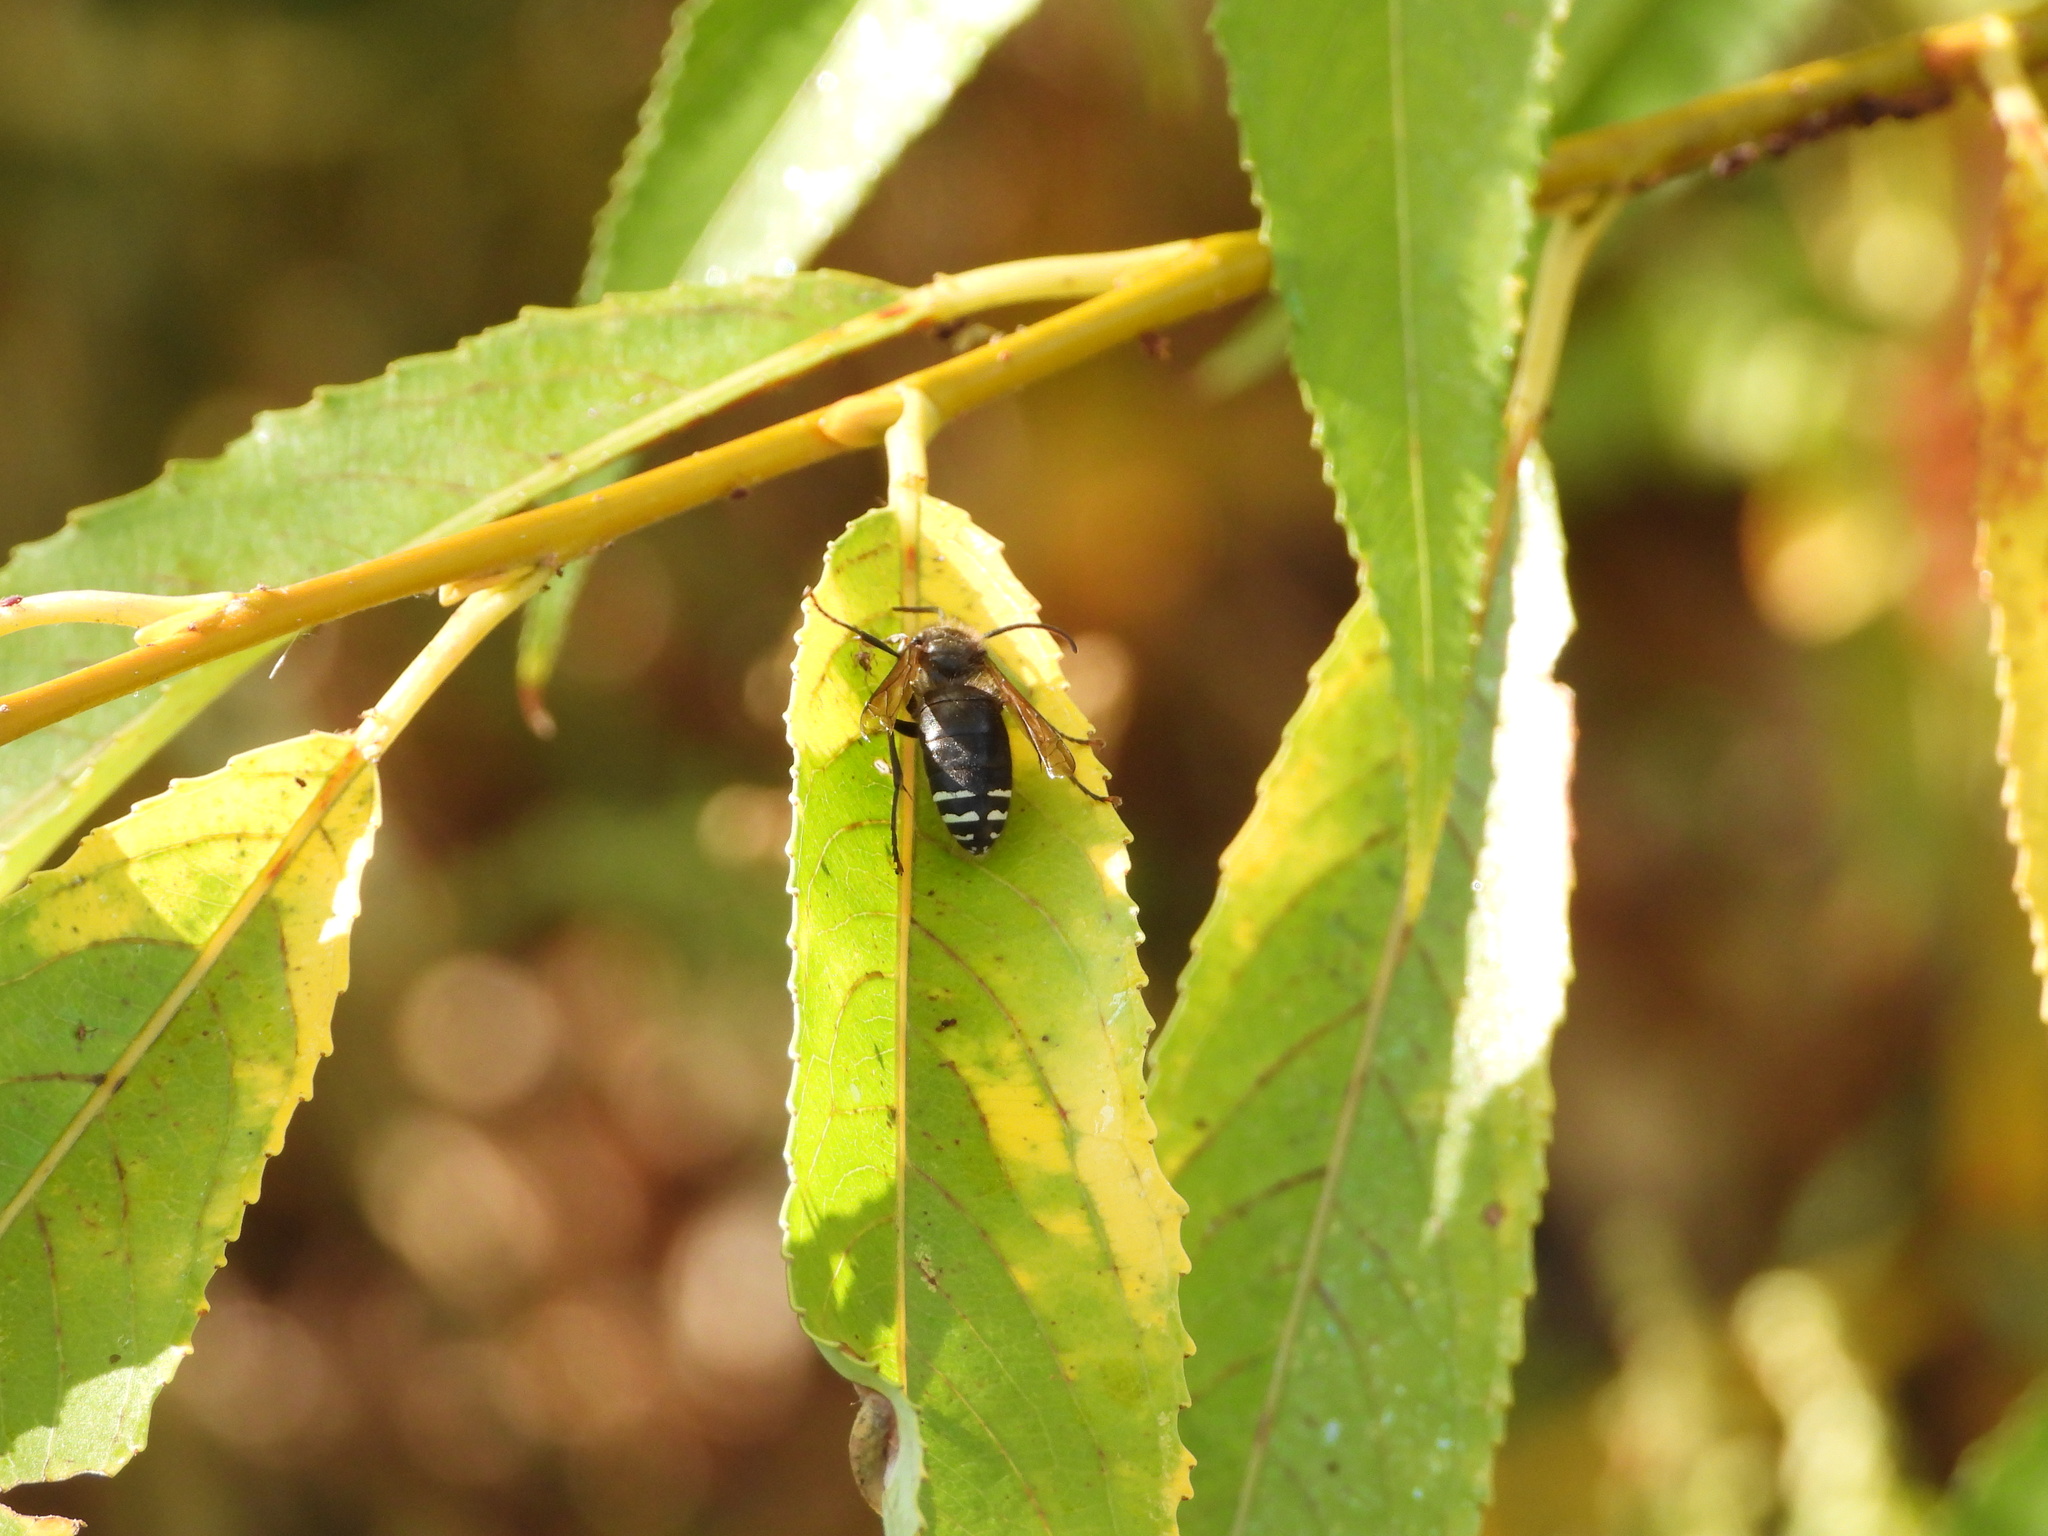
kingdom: Animalia
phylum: Arthropoda
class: Insecta
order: Hymenoptera
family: Vespidae
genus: Dolichovespula
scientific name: Dolichovespula maculata
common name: Bald-faced hornet
